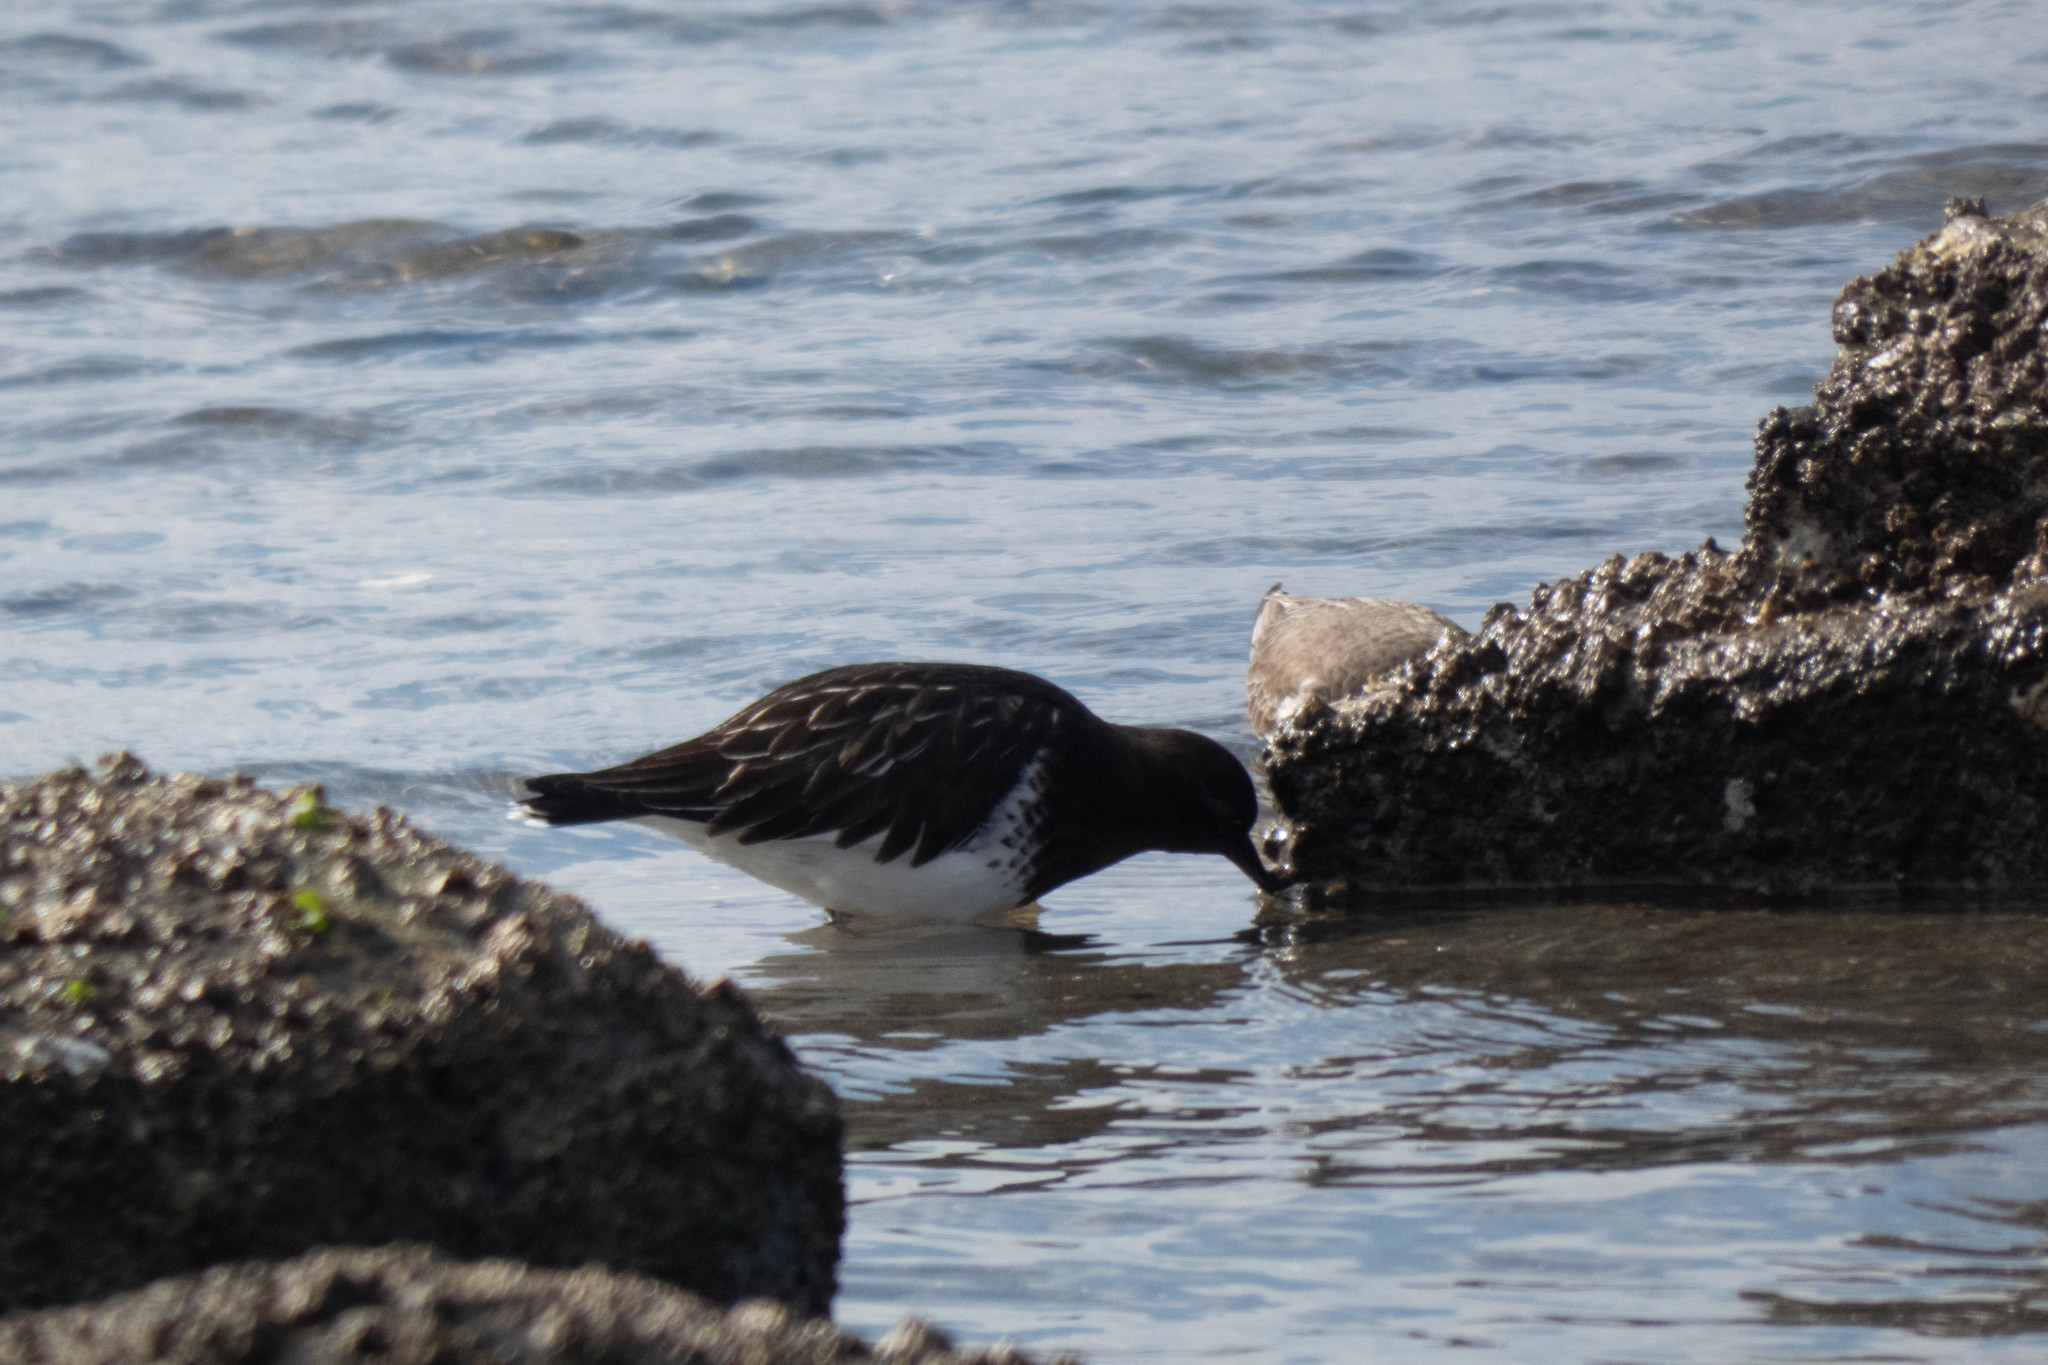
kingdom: Animalia
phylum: Chordata
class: Aves
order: Charadriiformes
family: Scolopacidae
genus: Arenaria
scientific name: Arenaria melanocephala
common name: Black turnstone
